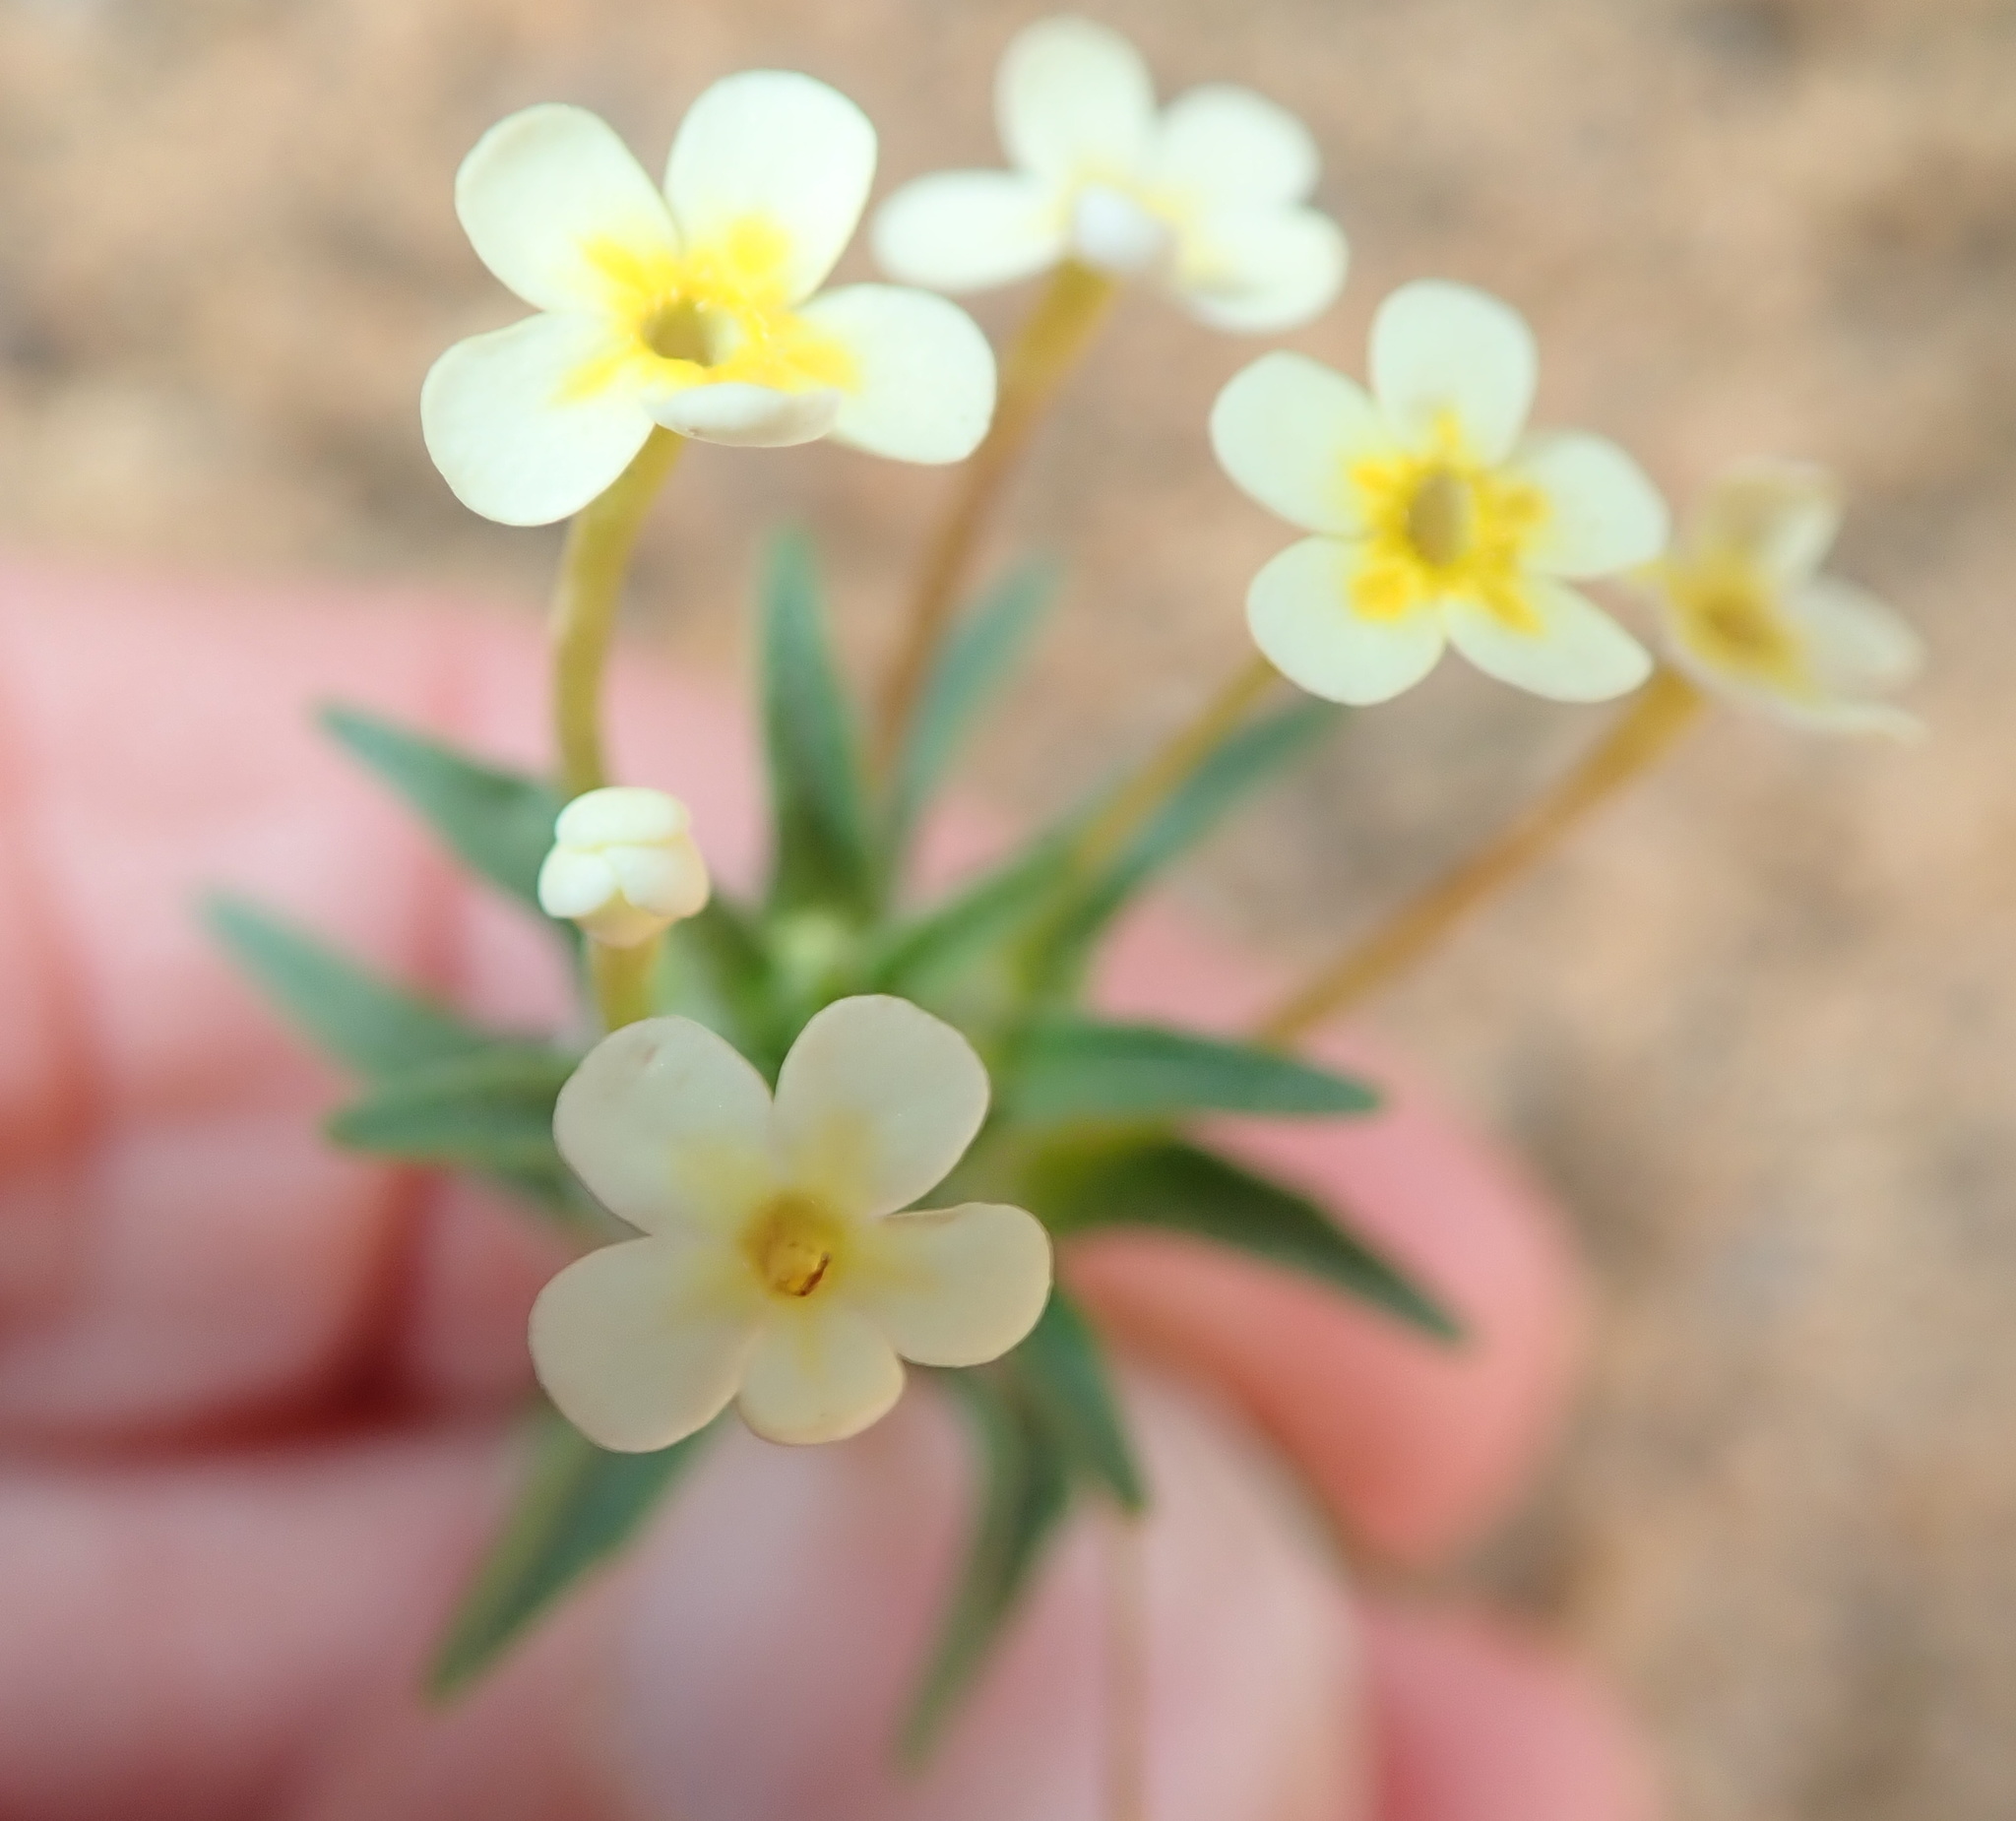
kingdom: Plantae
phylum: Tracheophyta
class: Magnoliopsida
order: Lamiales
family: Scrophulariaceae
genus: Zaluzianskya
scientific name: Zaluzianskya benthamiana
